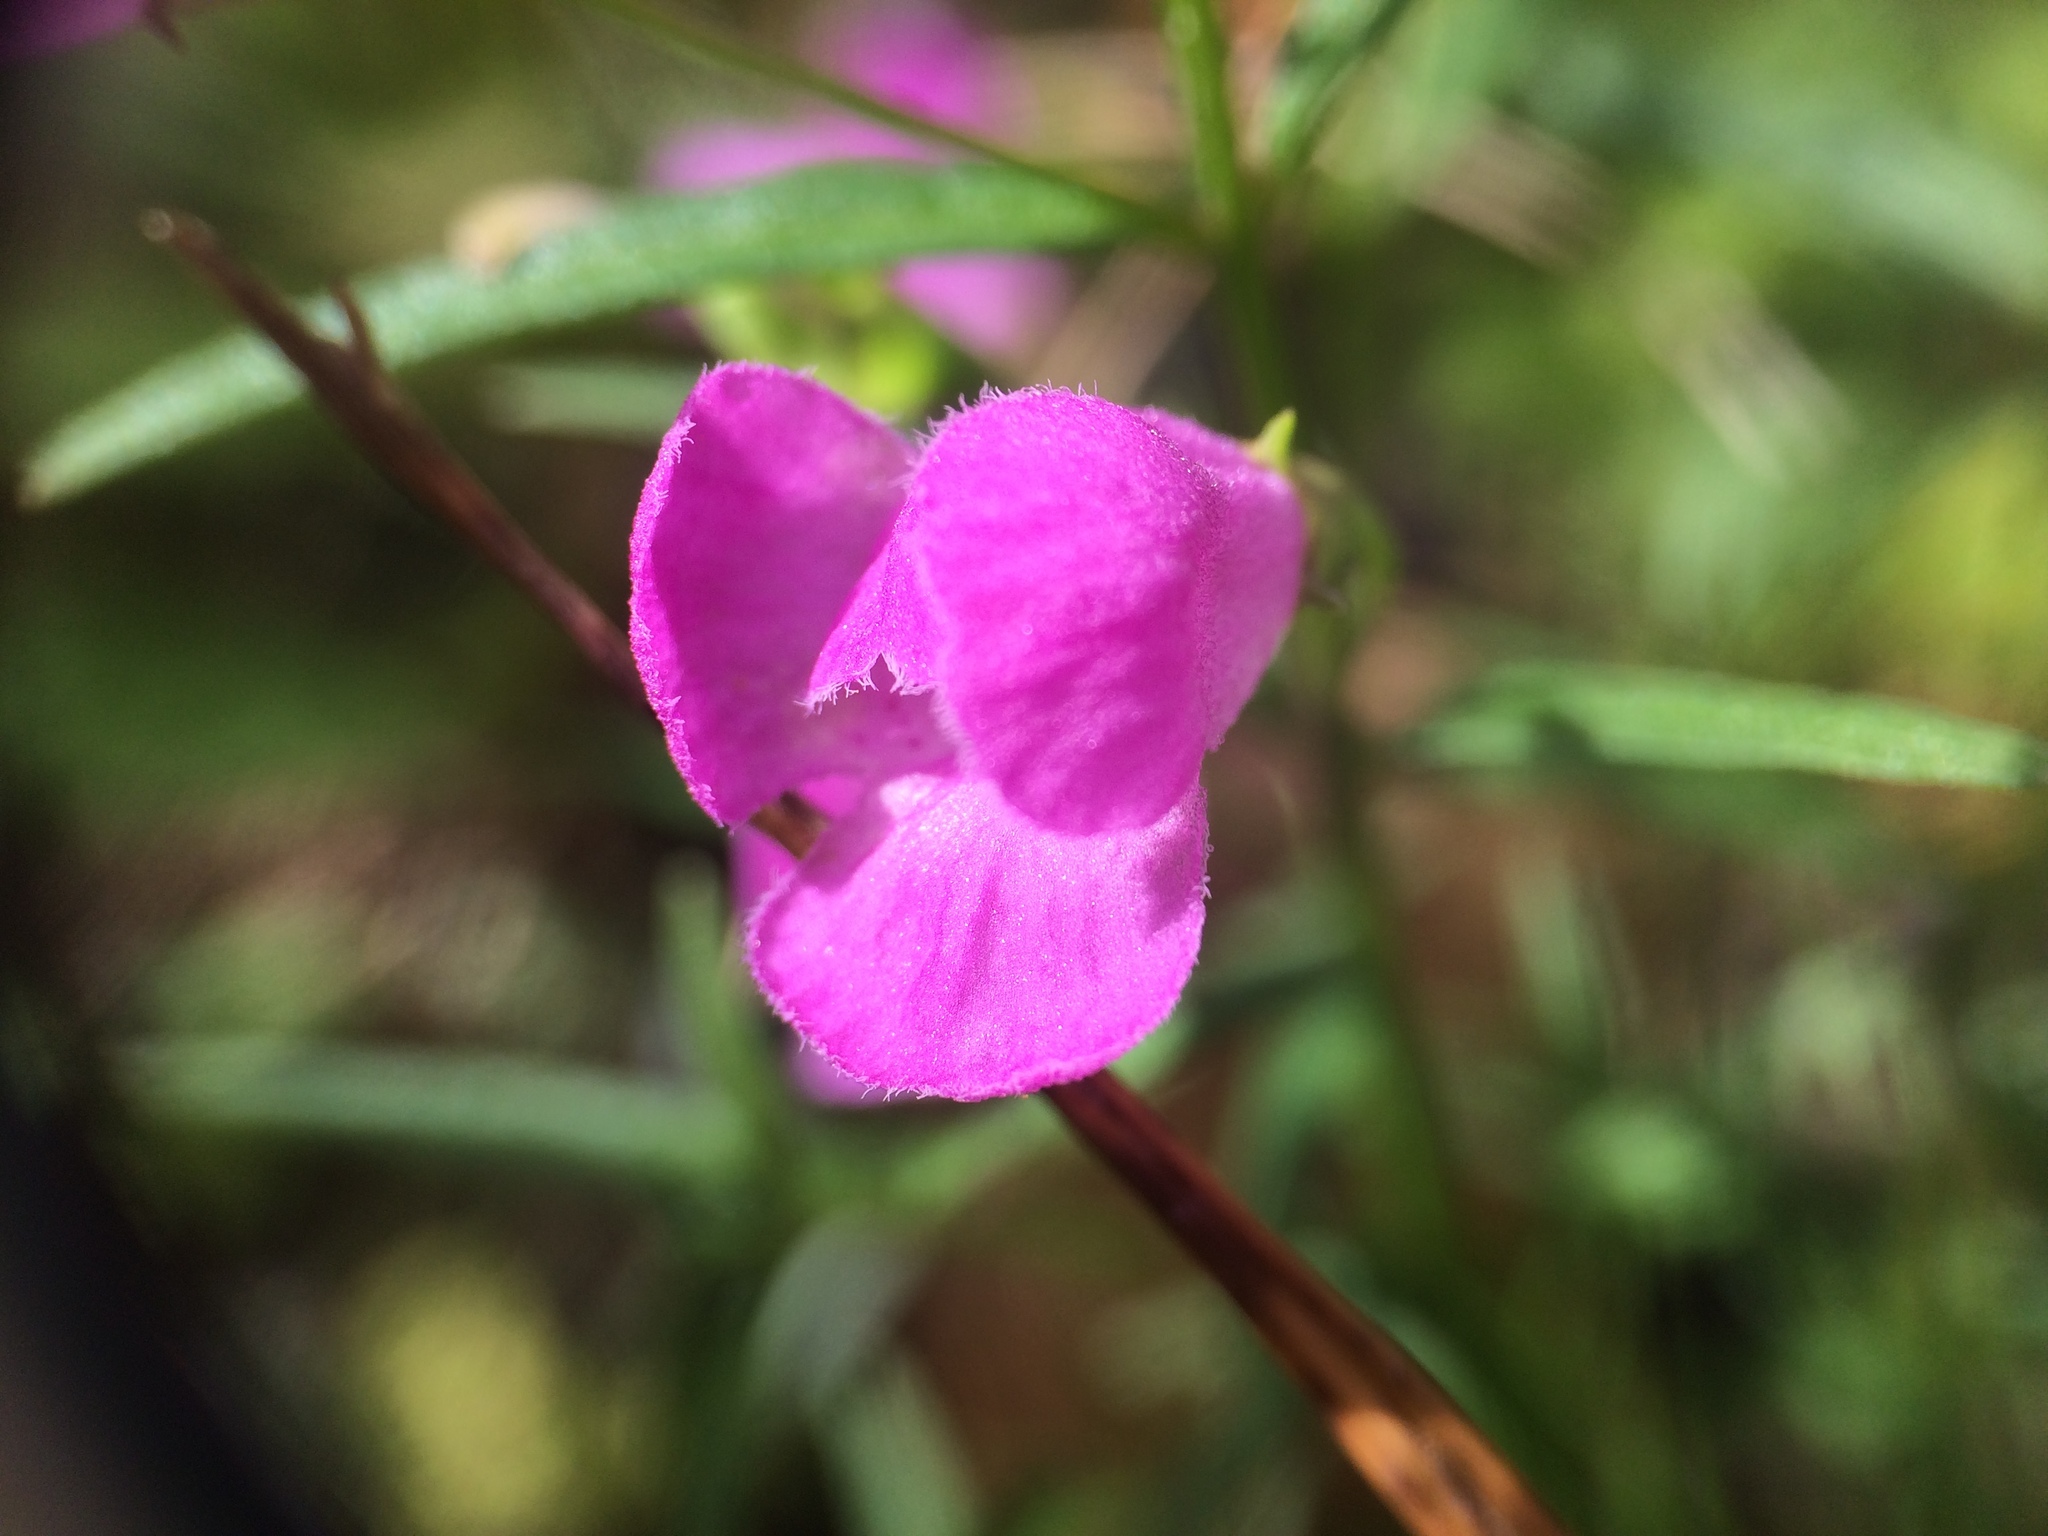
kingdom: Plantae
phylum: Tracheophyta
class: Magnoliopsida
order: Lamiales
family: Orobanchaceae
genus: Agalinis
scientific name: Agalinis tenuifolia
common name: Slender agalinis
